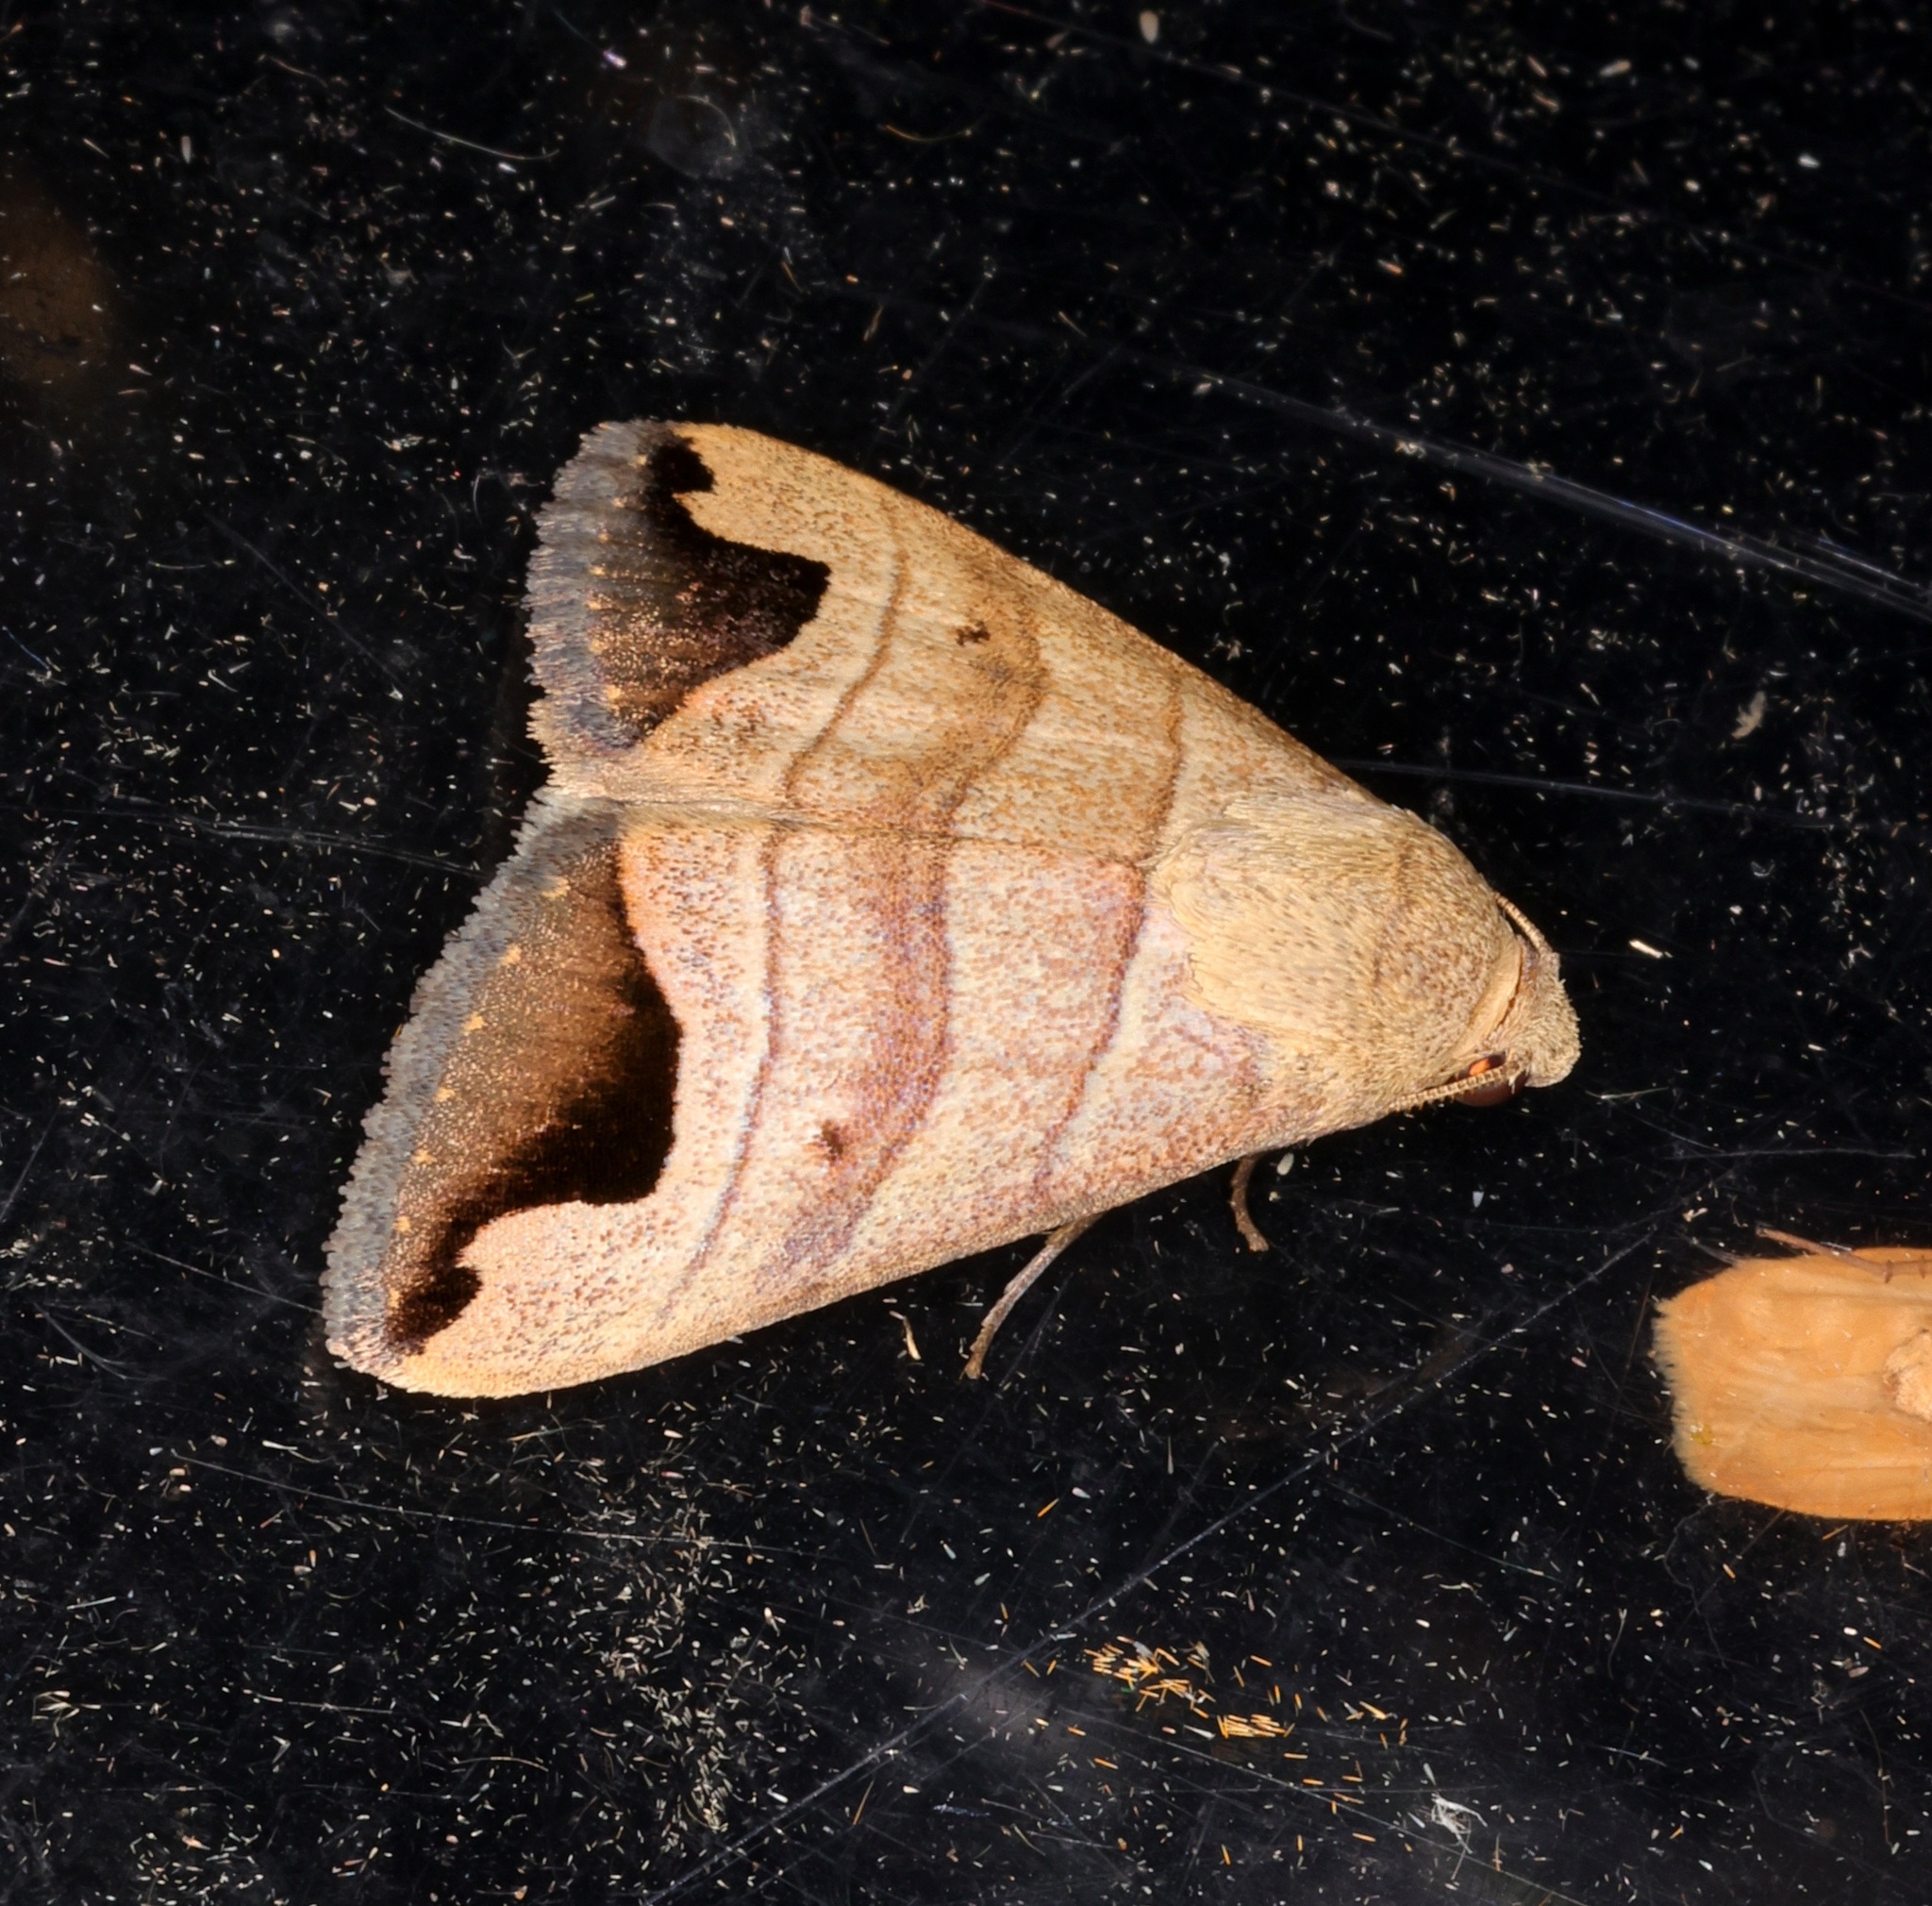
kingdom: Animalia
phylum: Arthropoda
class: Insecta
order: Lepidoptera
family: Erebidae
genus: Bocula
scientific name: Bocula marginata
